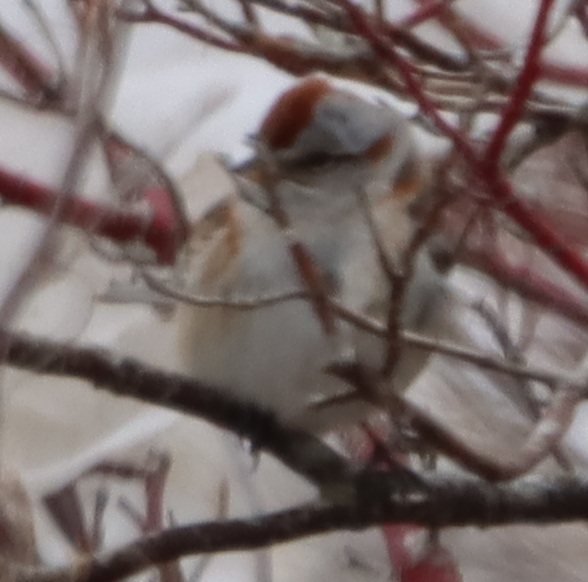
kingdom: Animalia
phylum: Chordata
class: Aves
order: Passeriformes
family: Passerellidae
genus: Spizelloides
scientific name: Spizelloides arborea
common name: American tree sparrow
